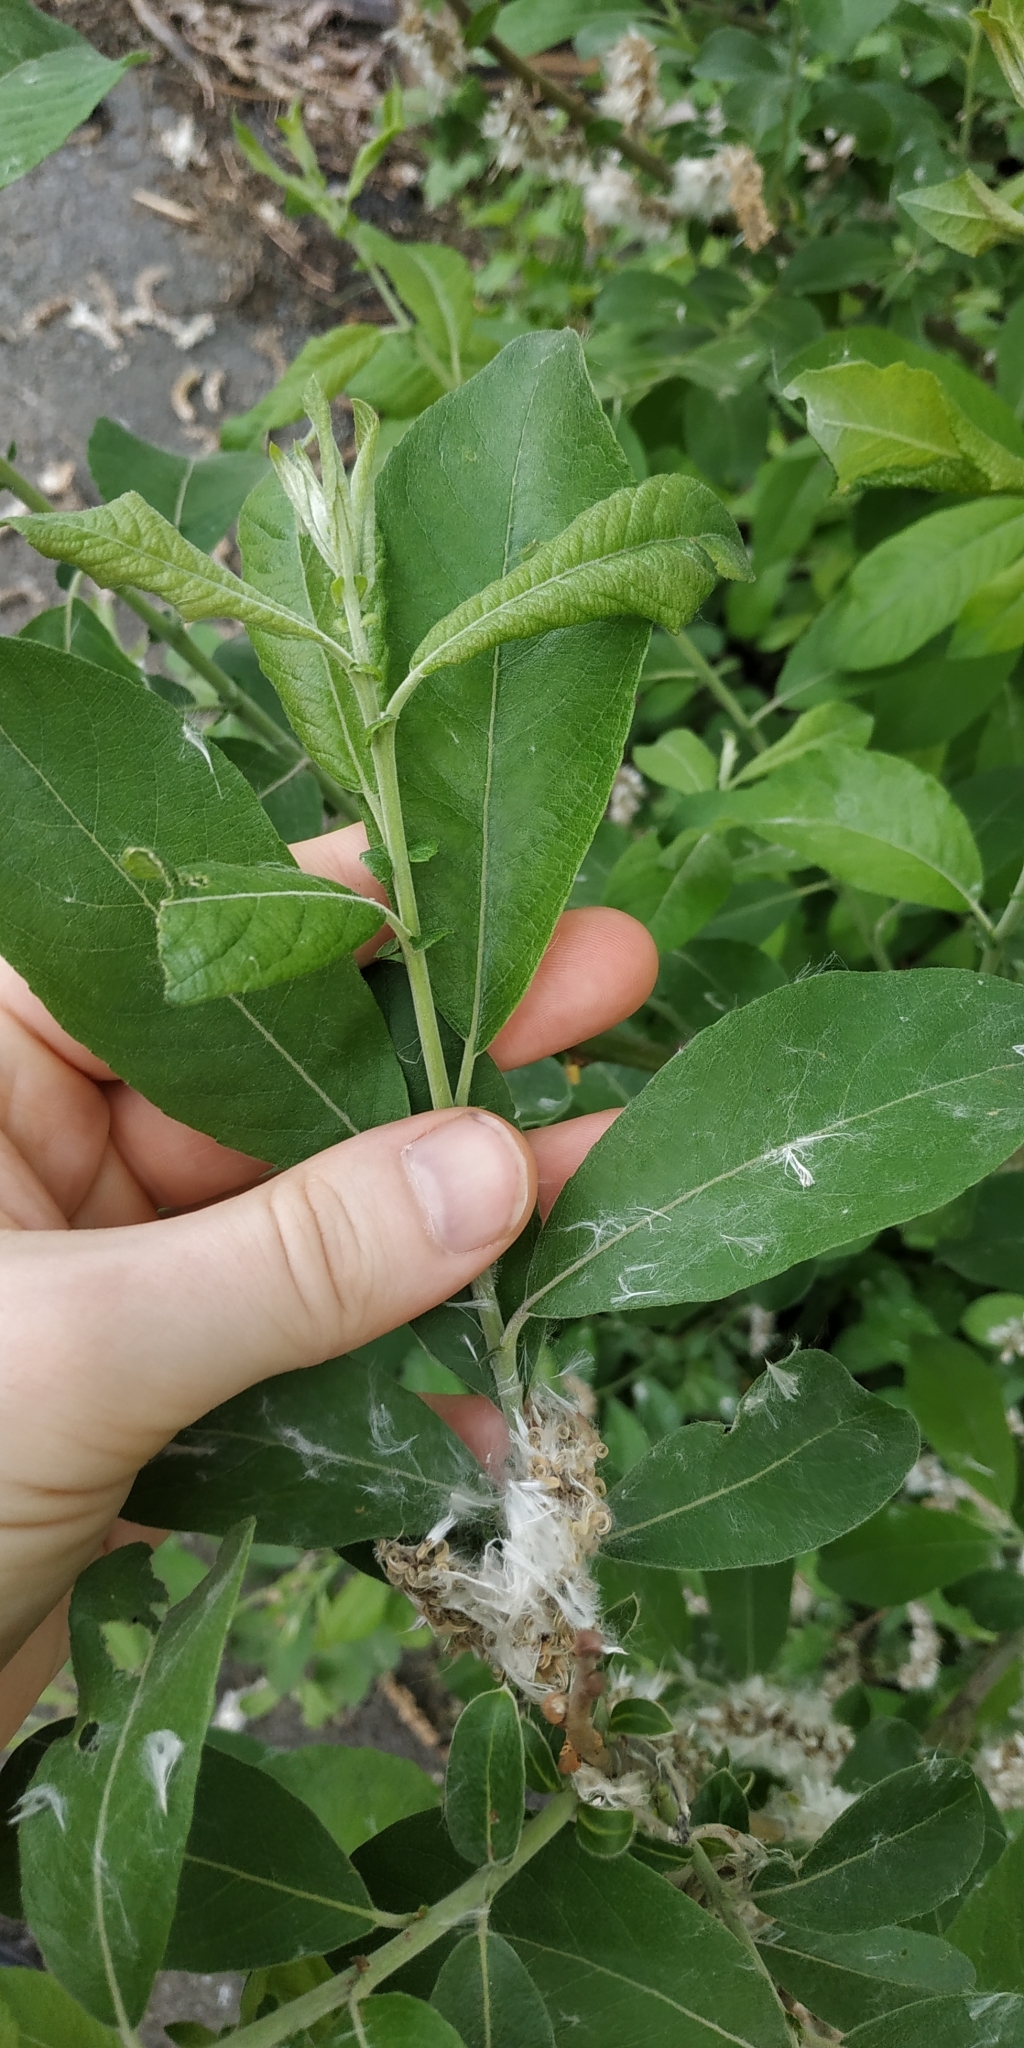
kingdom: Plantae
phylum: Tracheophyta
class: Magnoliopsida
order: Malpighiales
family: Salicaceae
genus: Salix
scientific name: Salix caprea
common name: Goat willow
